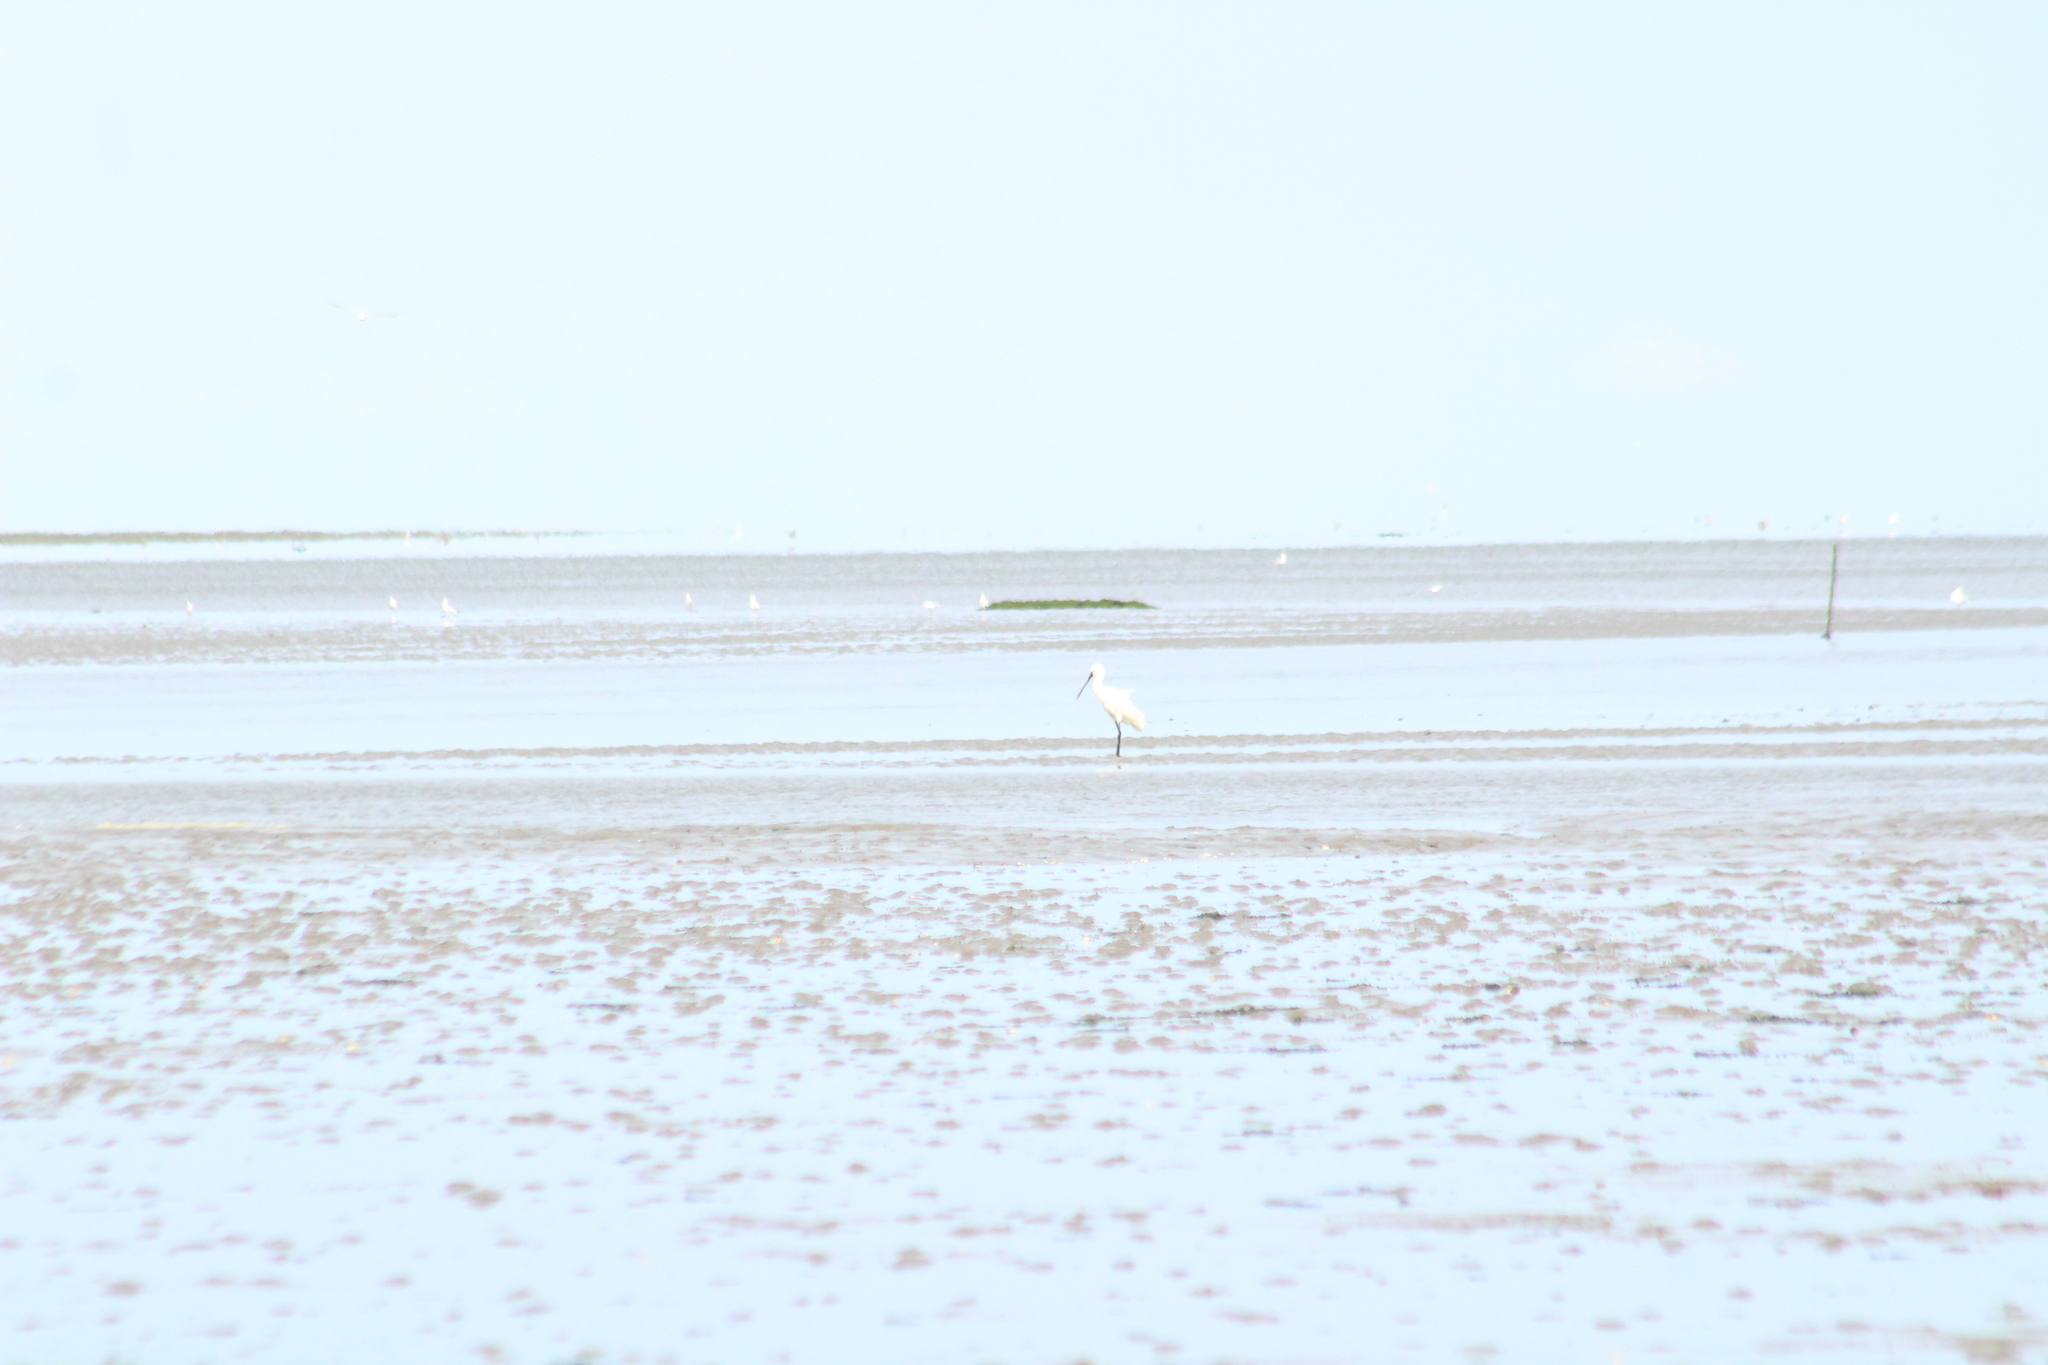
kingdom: Animalia
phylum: Chordata
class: Aves
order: Pelecaniformes
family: Threskiornithidae
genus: Platalea
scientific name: Platalea leucorodia
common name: Eurasian spoonbill
